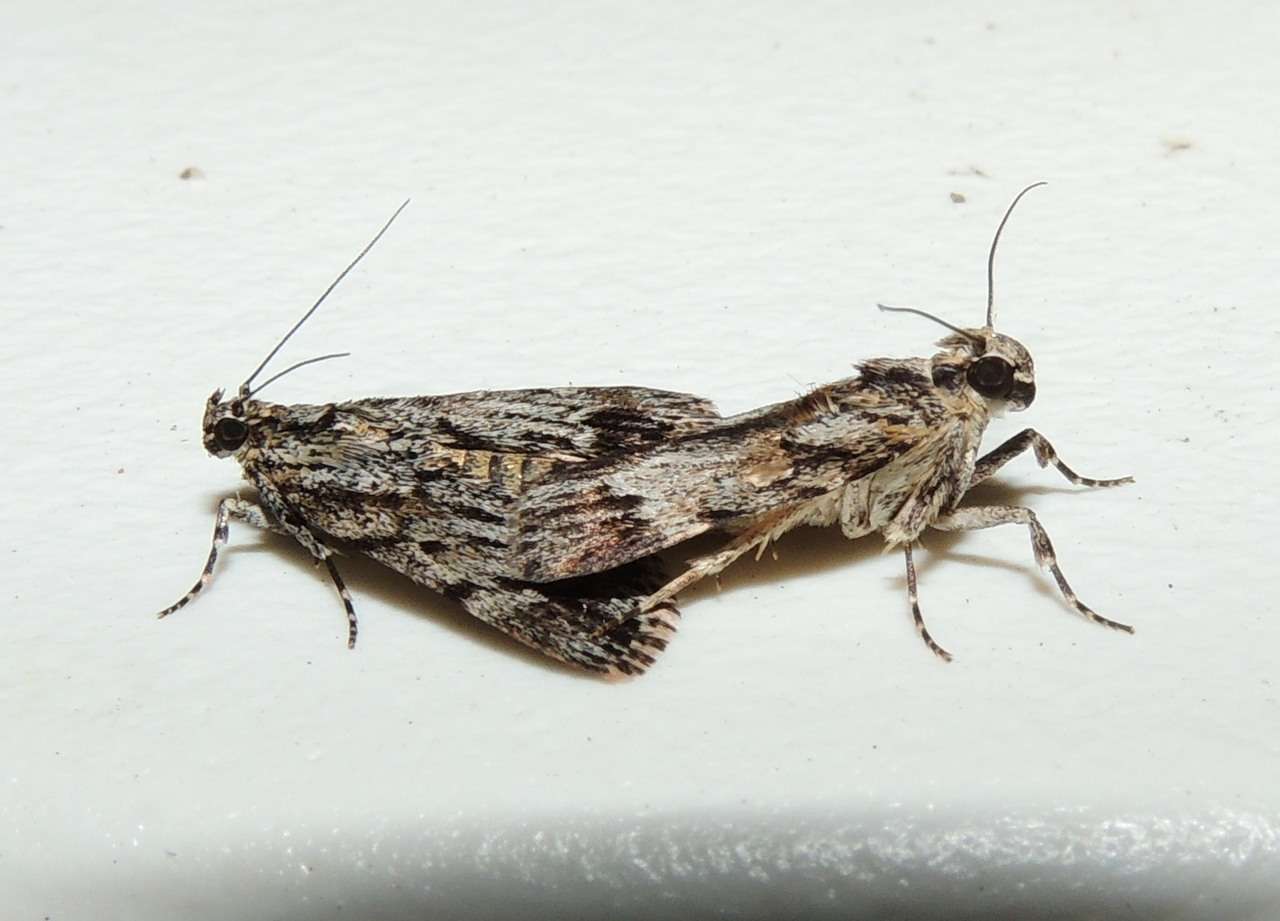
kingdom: Animalia
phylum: Arthropoda
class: Insecta
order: Lepidoptera
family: Pyralidae
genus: Spectrotrota
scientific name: Spectrotrota fimbrialis
